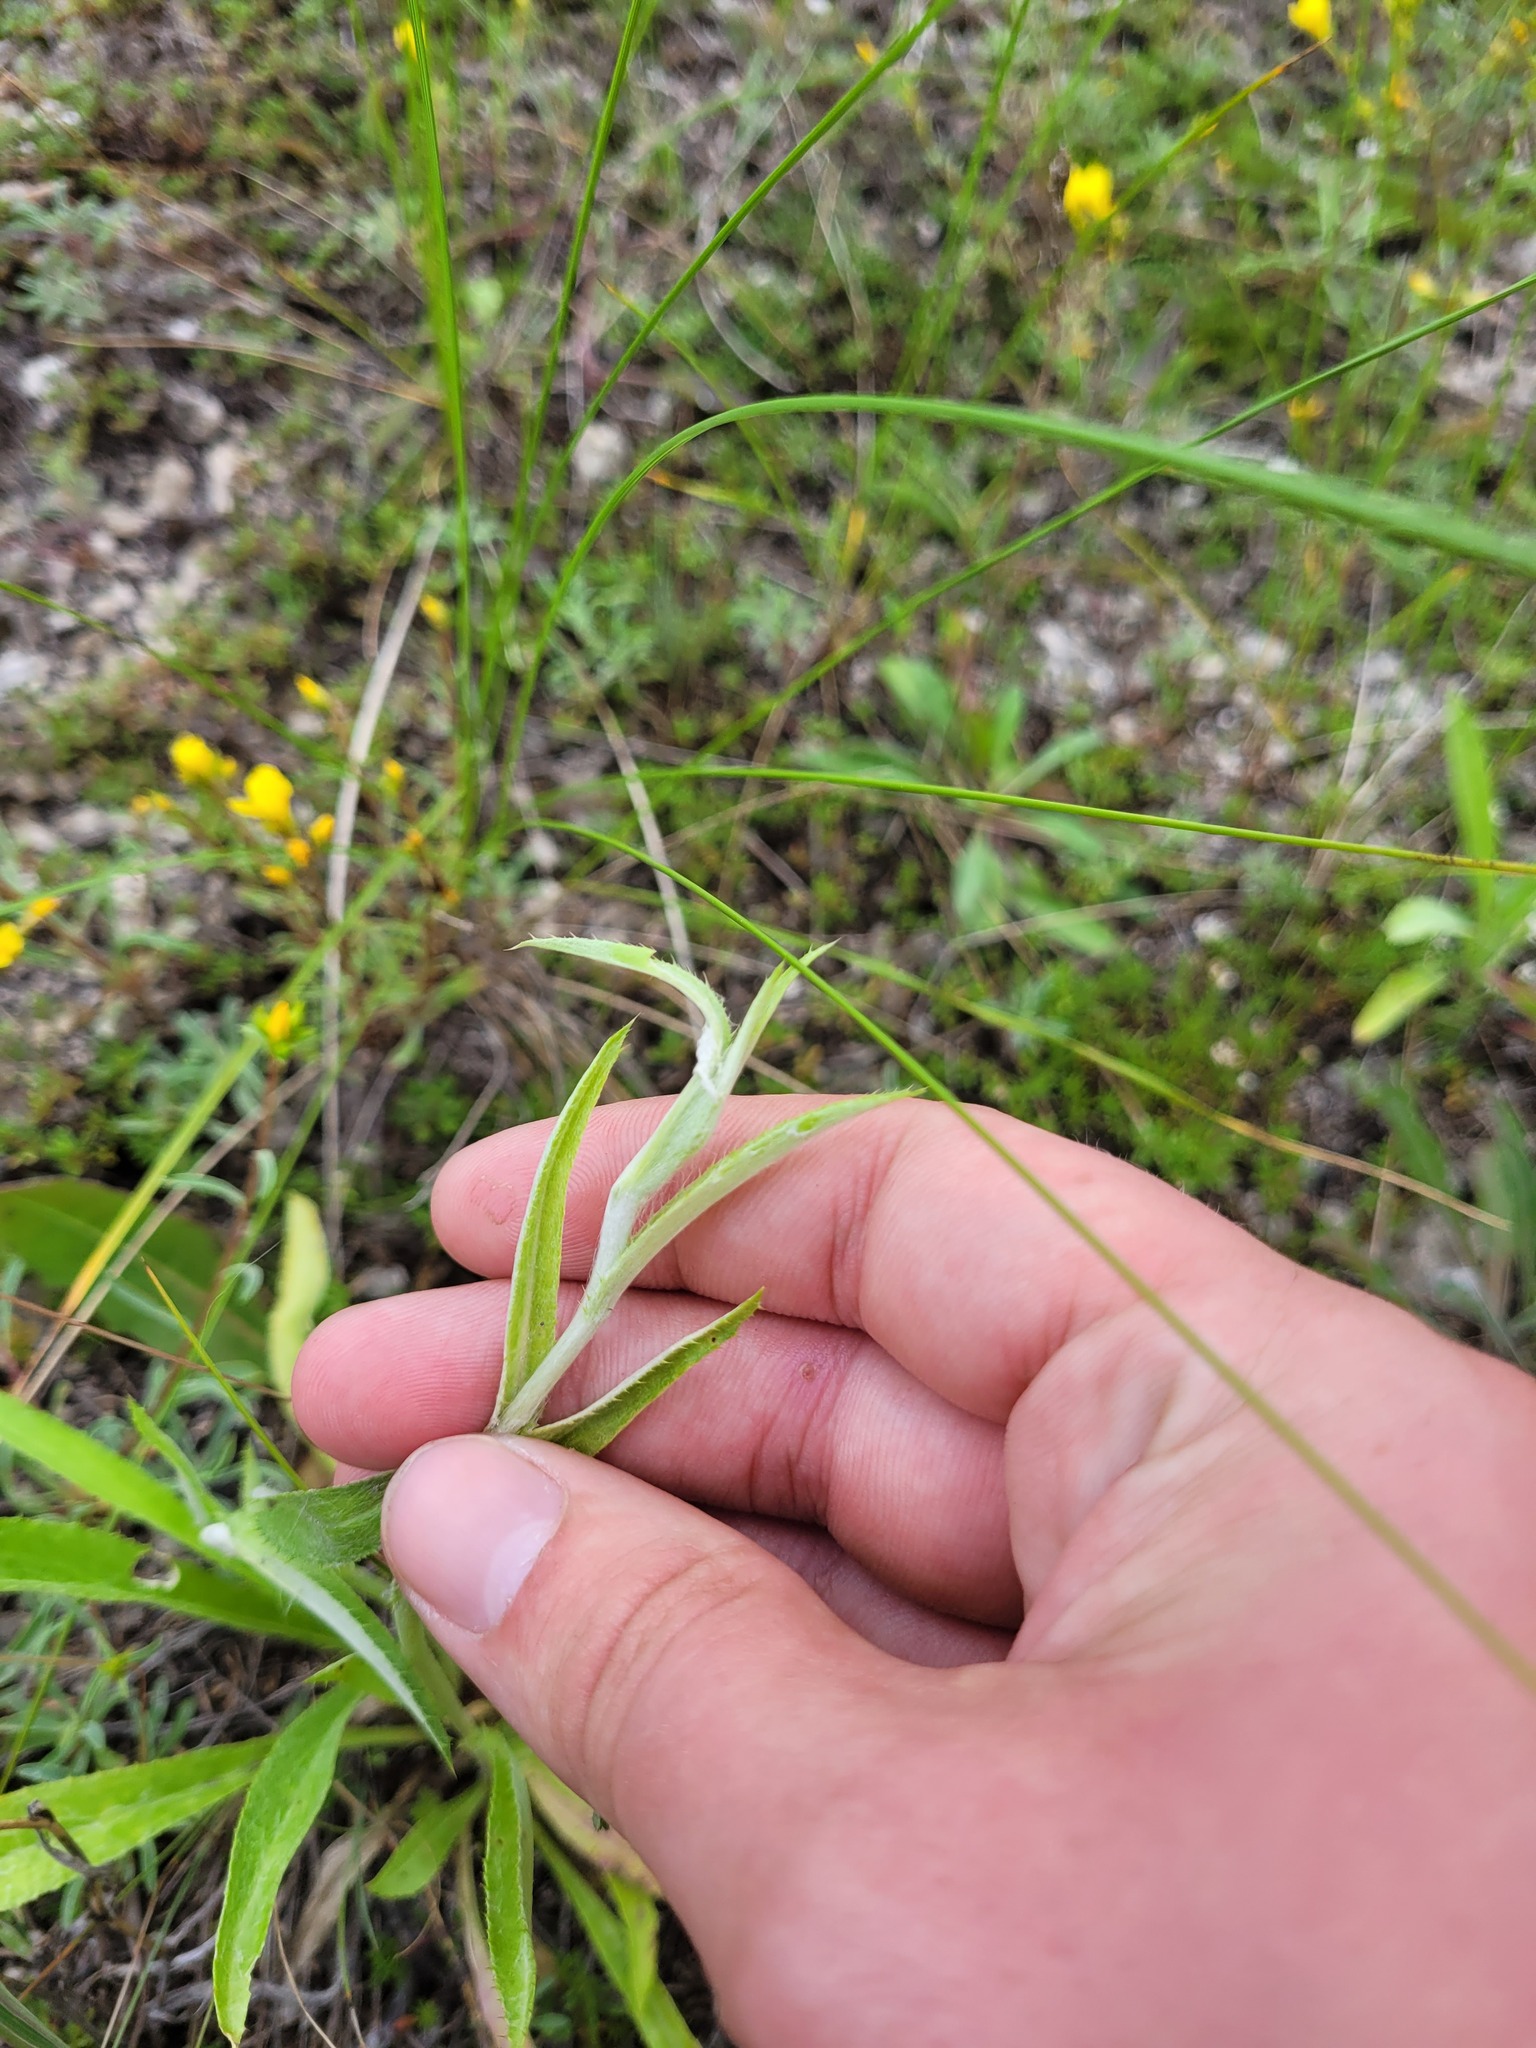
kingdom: Plantae
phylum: Tracheophyta
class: Magnoliopsida
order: Asterales
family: Asteraceae
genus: Carlina
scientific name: Carlina biebersteinii
